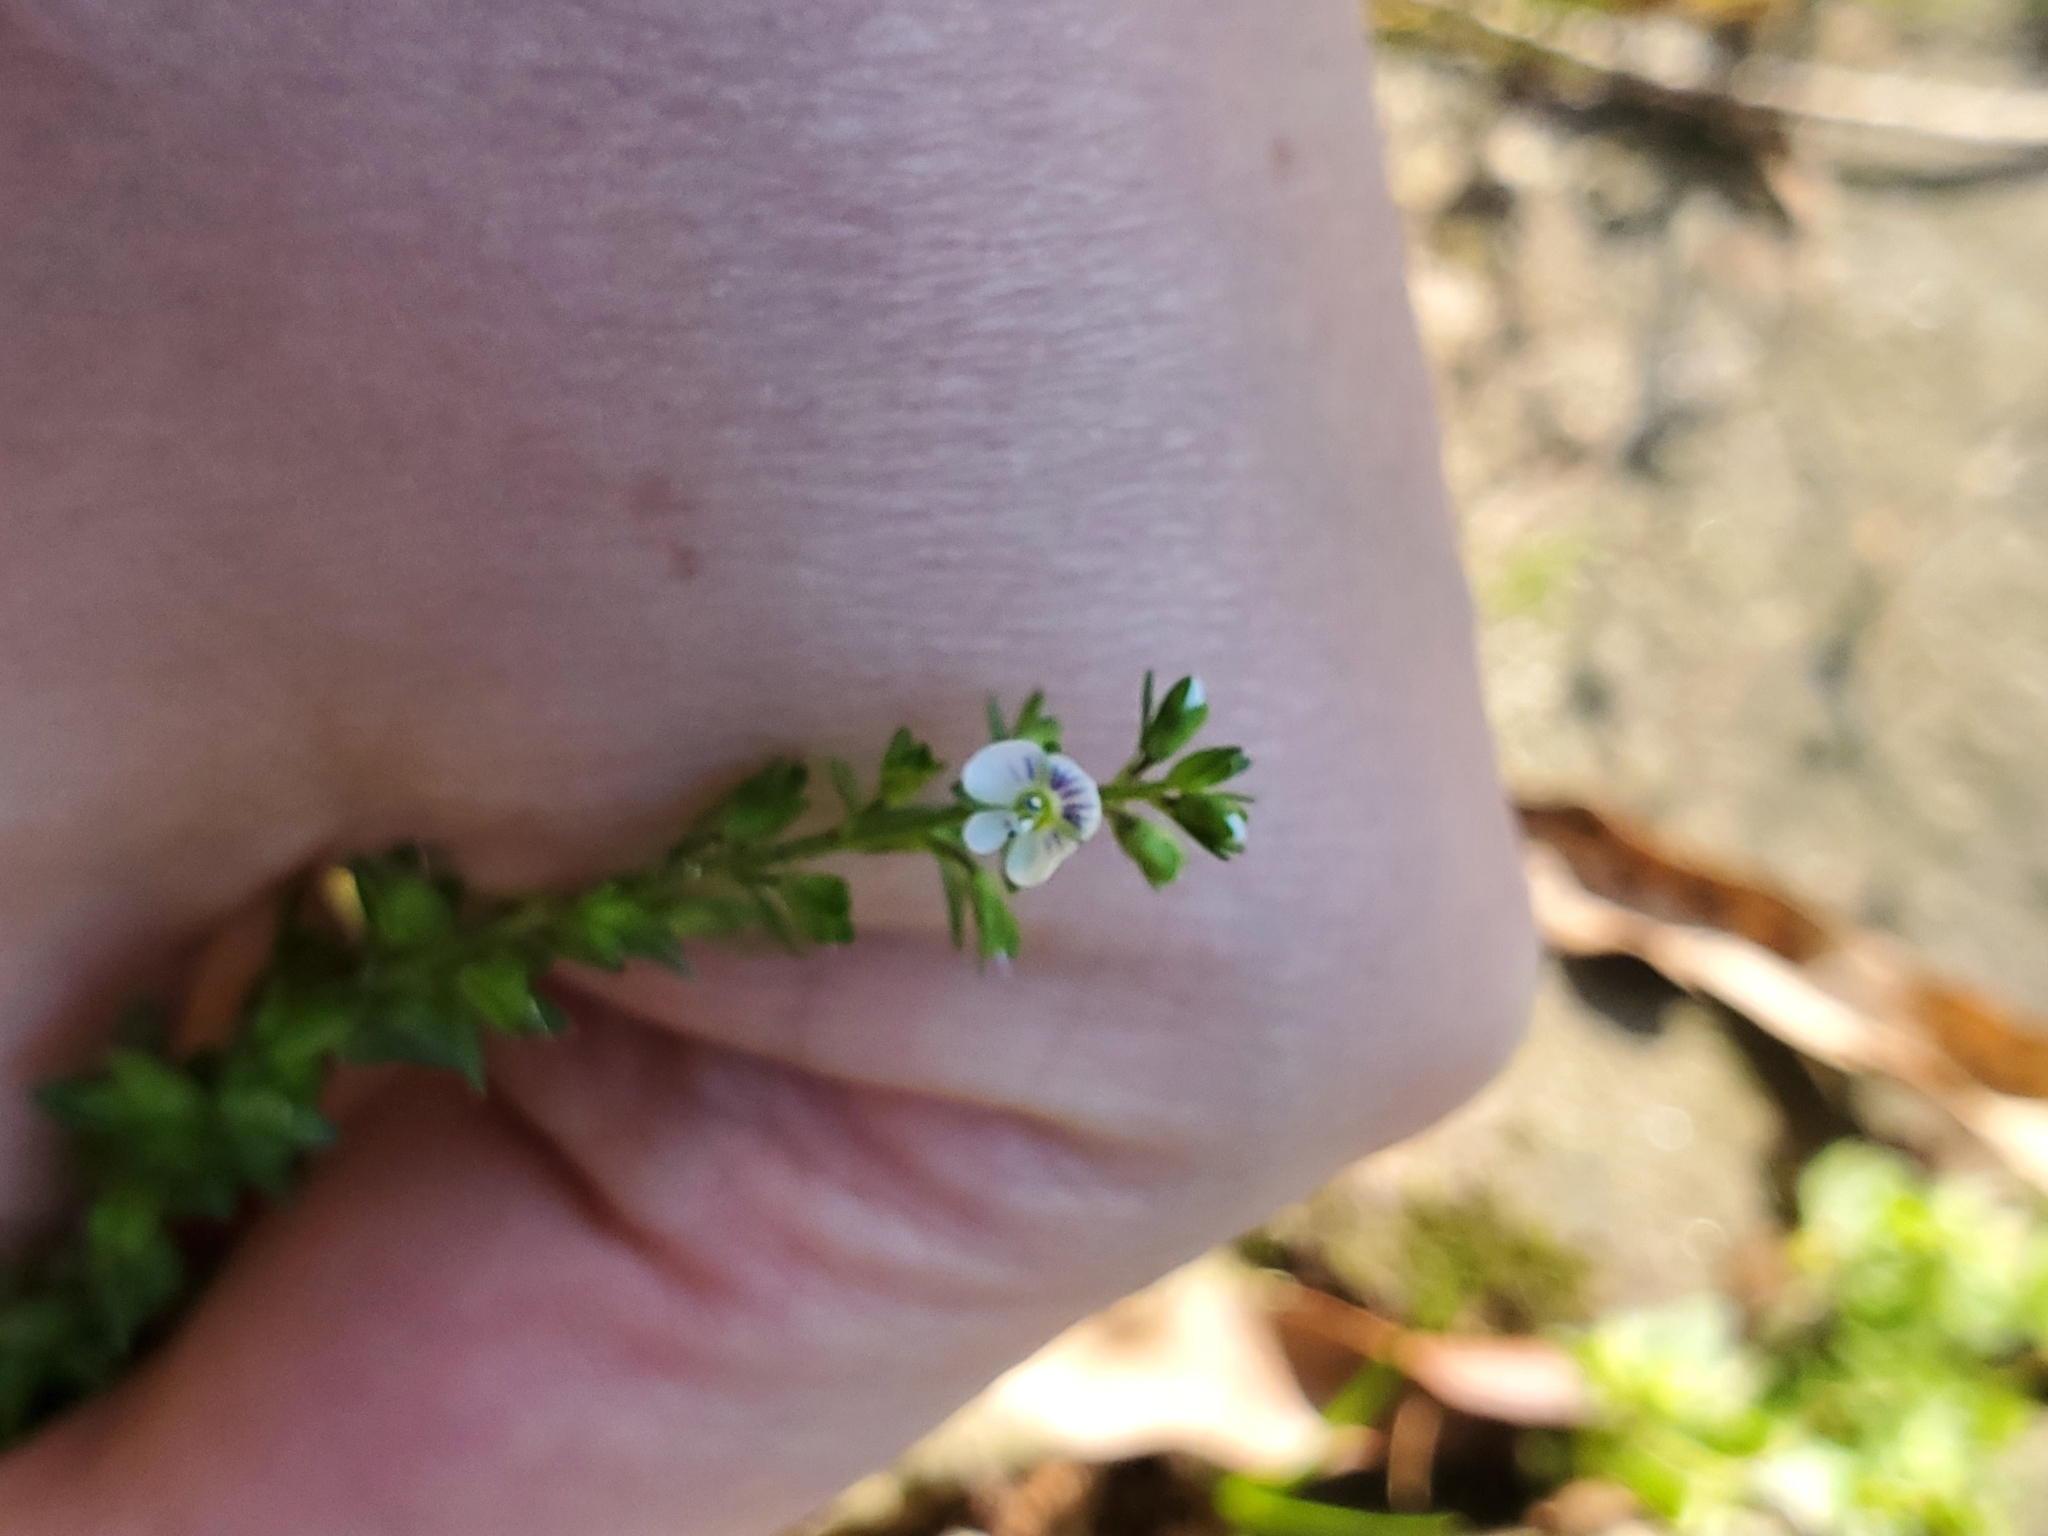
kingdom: Plantae
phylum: Tracheophyta
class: Magnoliopsida
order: Lamiales
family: Plantaginaceae
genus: Veronica
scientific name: Veronica serpyllifolia
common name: Thyme-leaved speedwell
